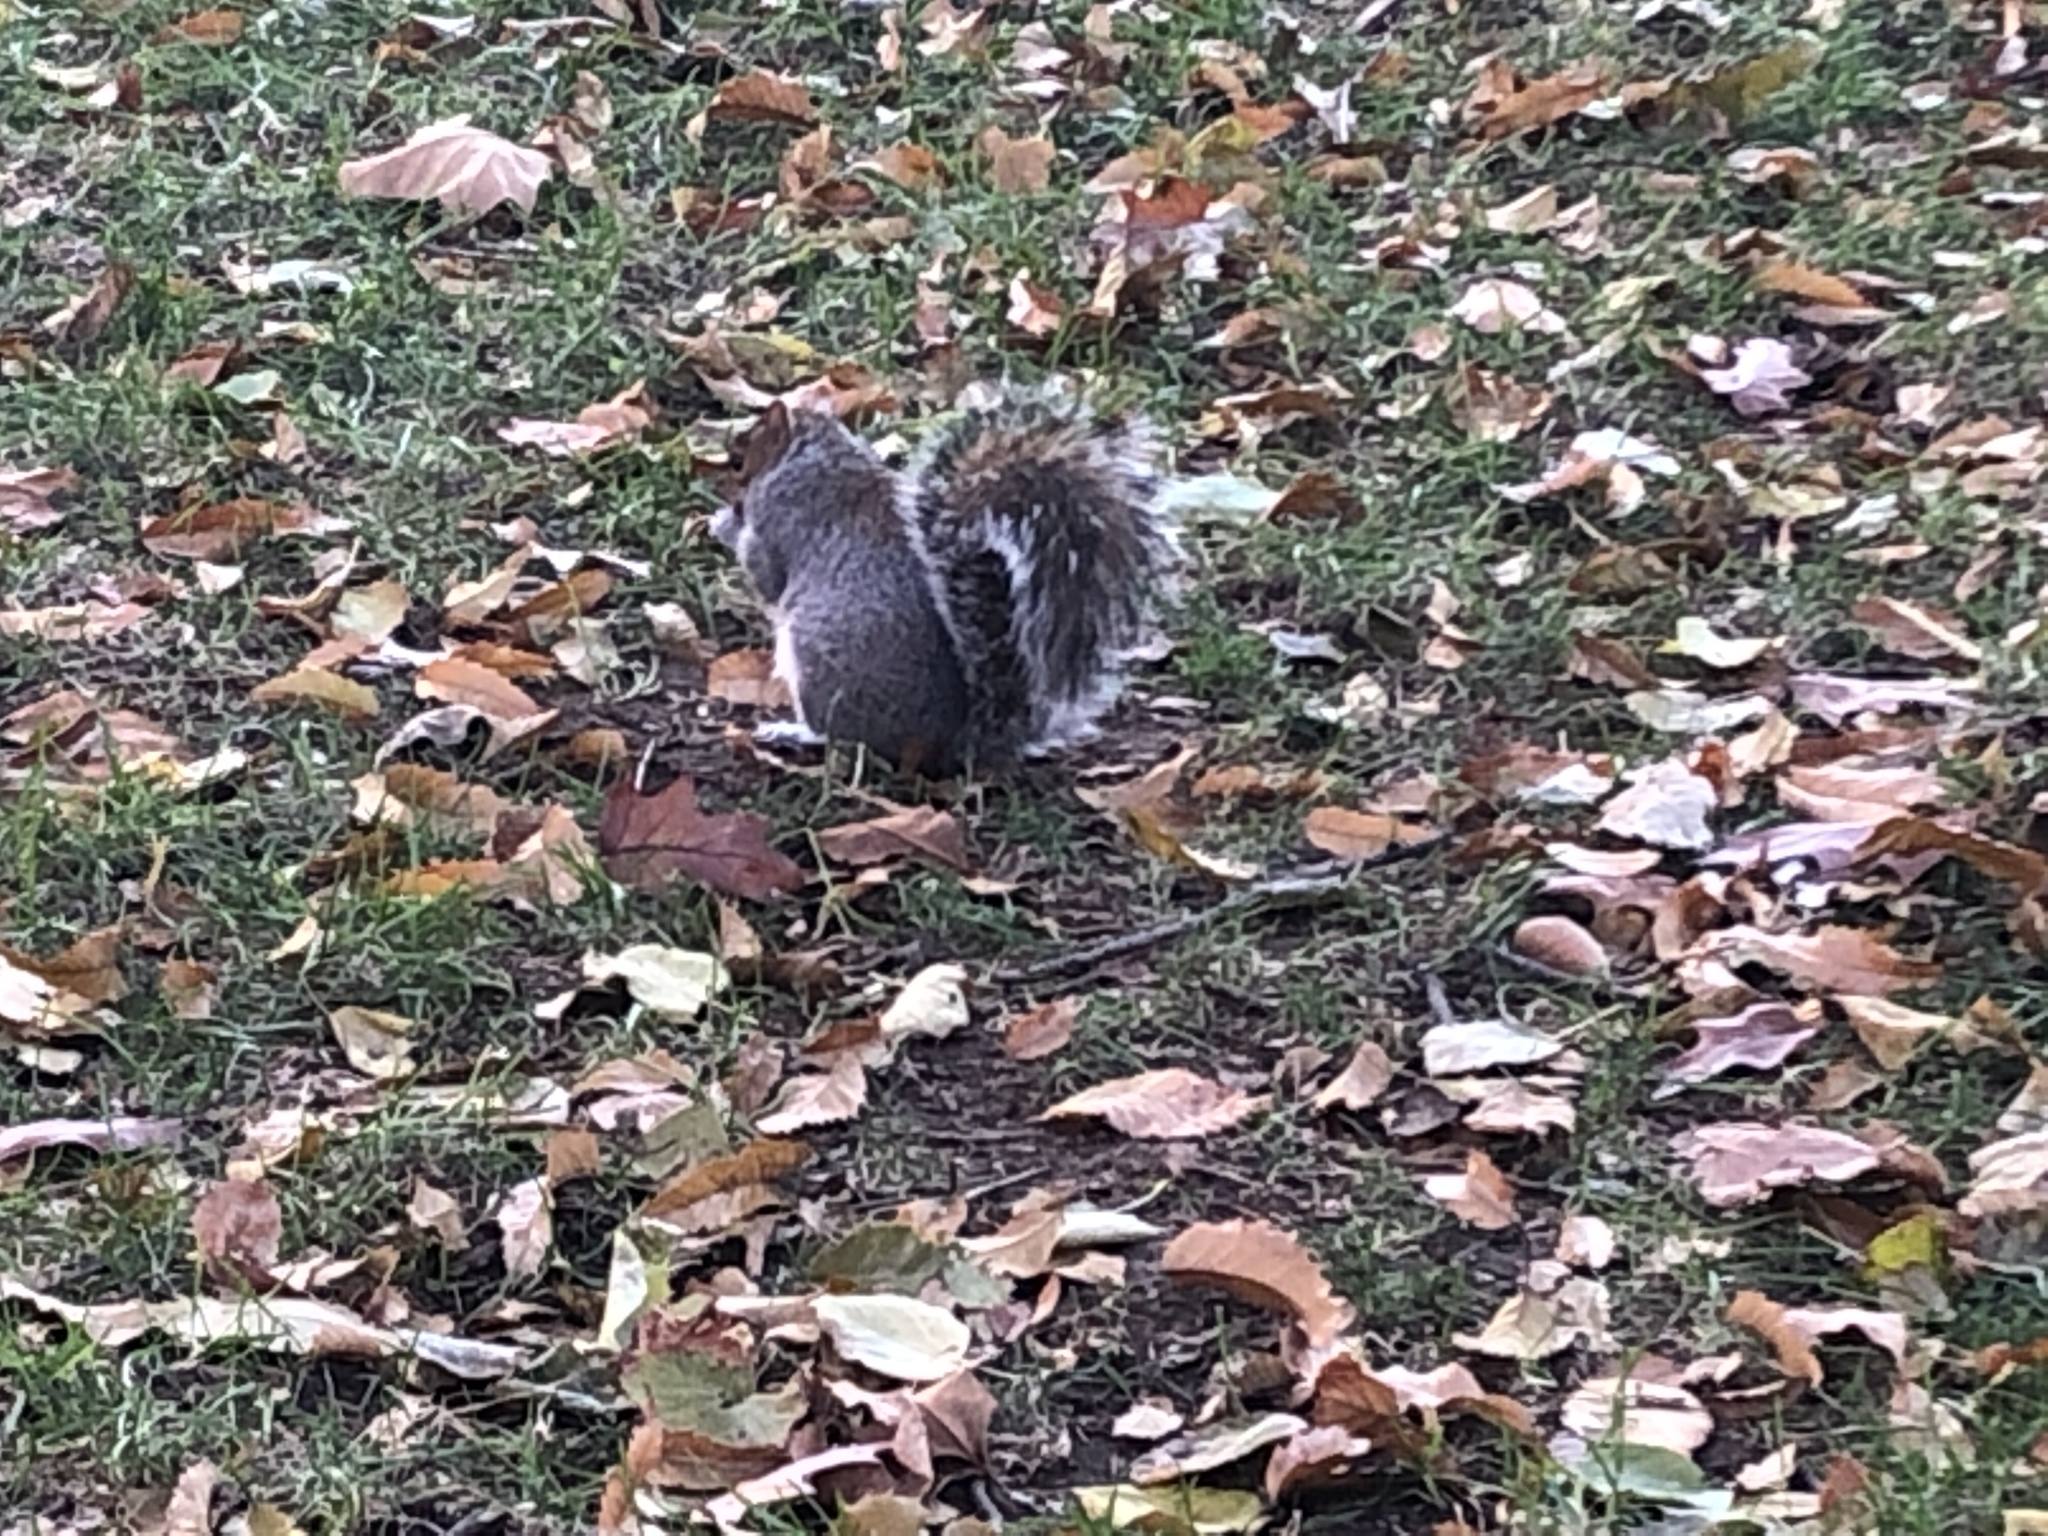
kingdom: Animalia
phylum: Chordata
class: Mammalia
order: Rodentia
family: Sciuridae
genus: Sciurus
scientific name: Sciurus carolinensis
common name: Eastern gray squirrel
